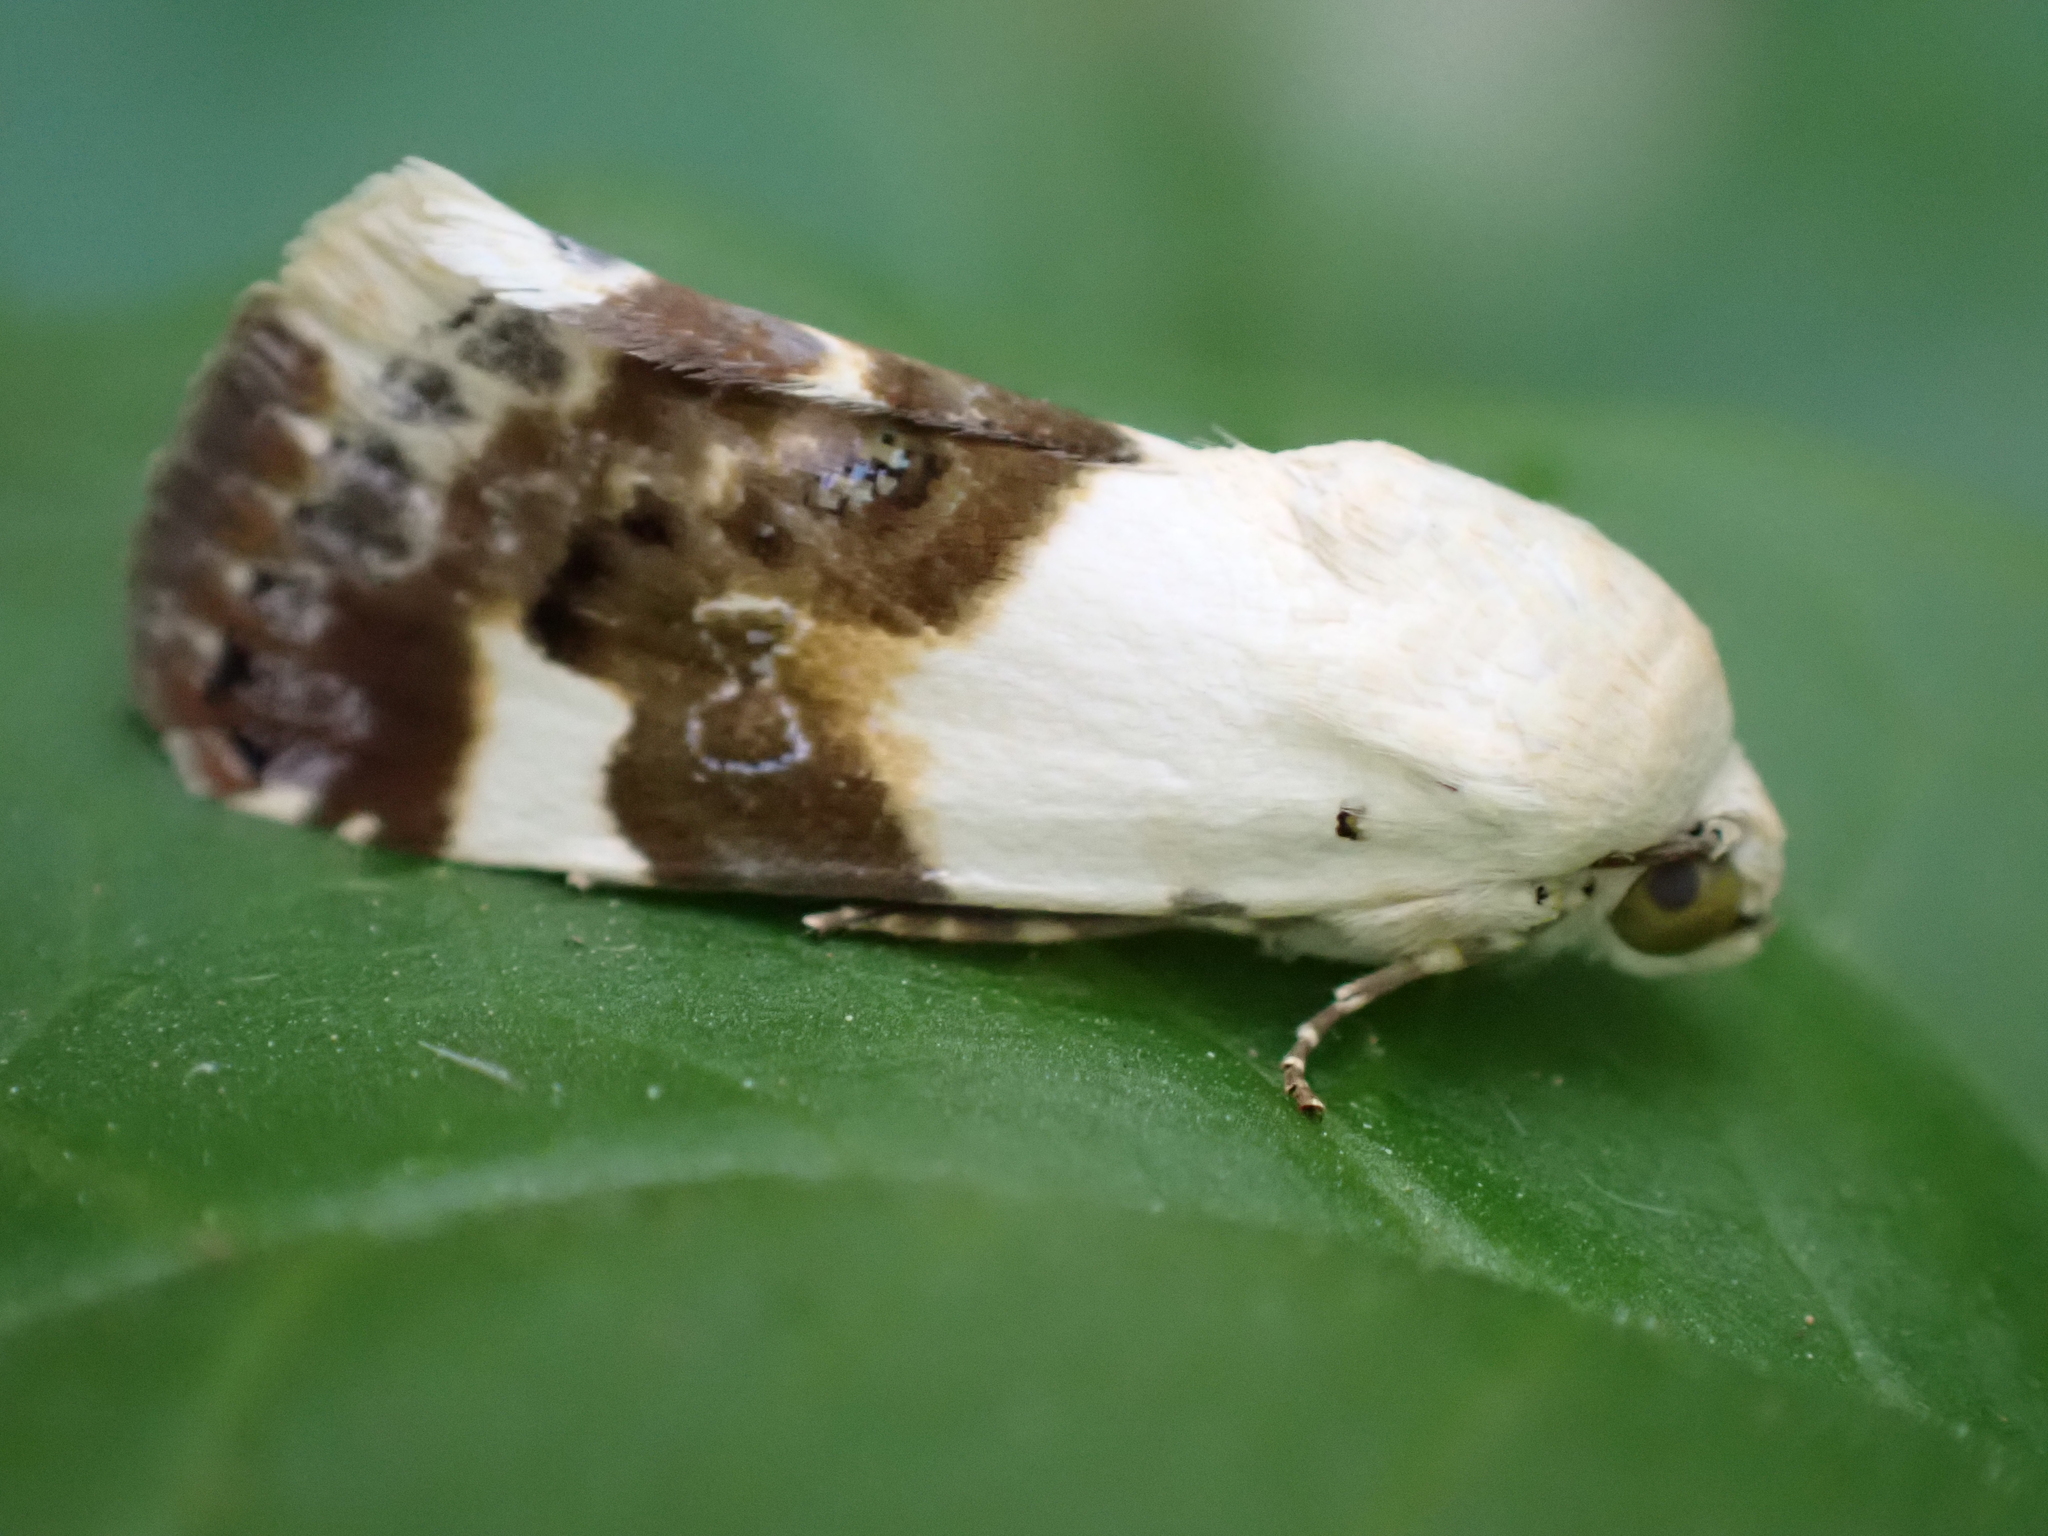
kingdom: Animalia
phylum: Arthropoda
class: Insecta
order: Lepidoptera
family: Noctuidae
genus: Acontia
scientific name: Acontia lucida
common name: Pale shoulder
